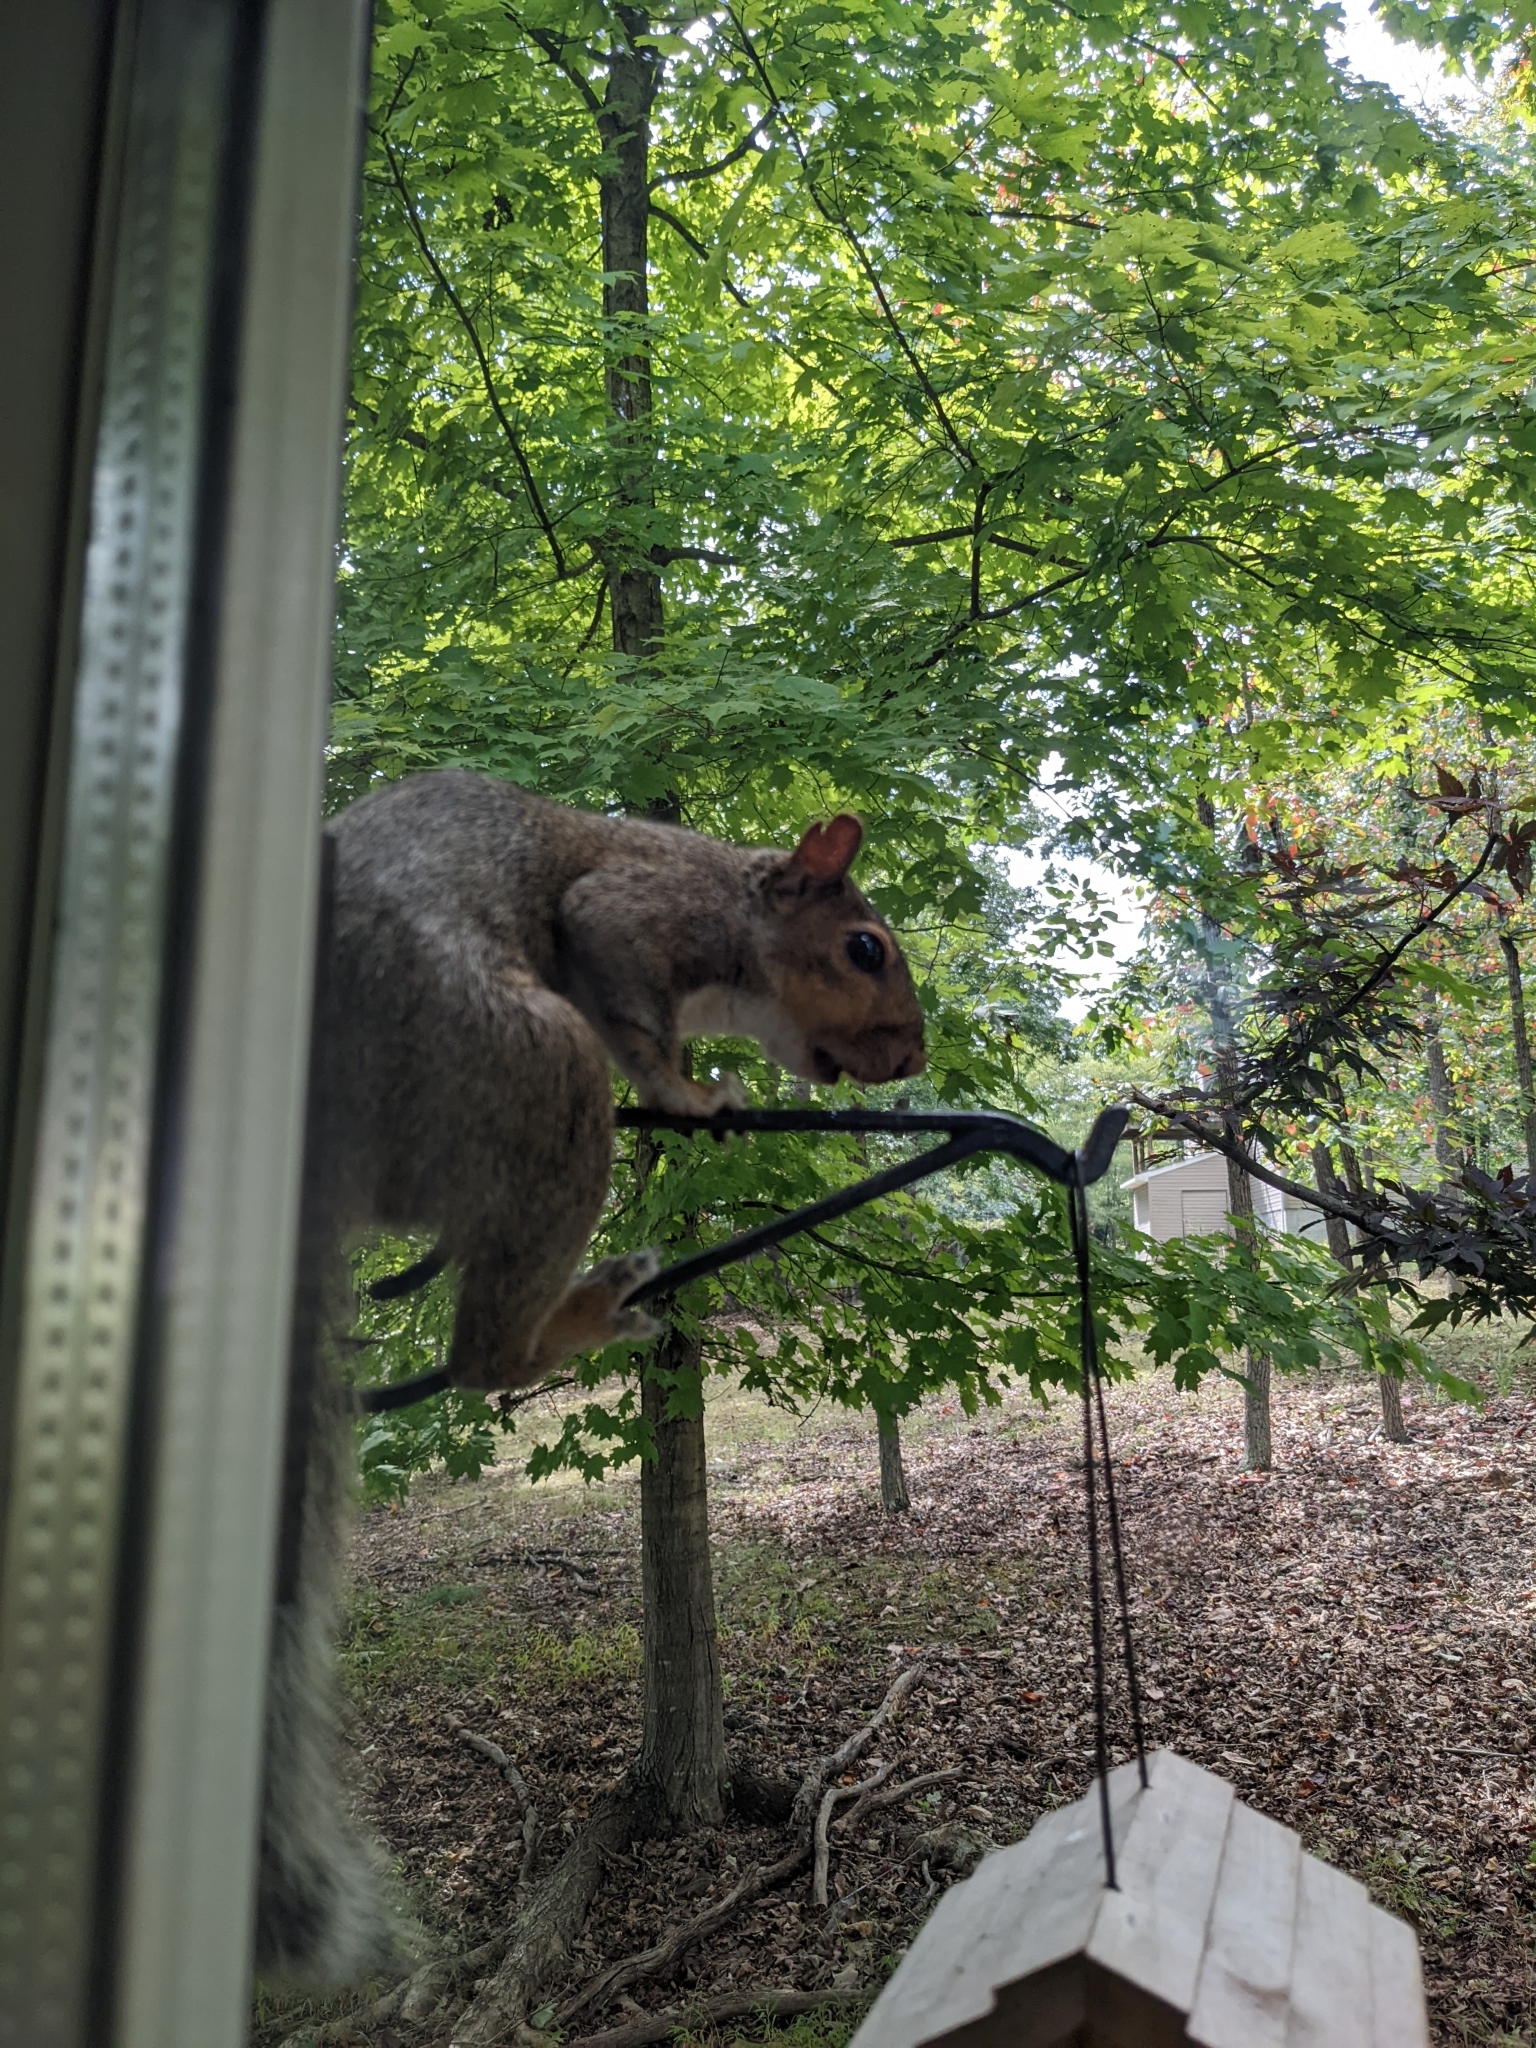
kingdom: Animalia
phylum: Chordata
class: Mammalia
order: Rodentia
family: Sciuridae
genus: Sciurus
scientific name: Sciurus carolinensis
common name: Eastern gray squirrel
